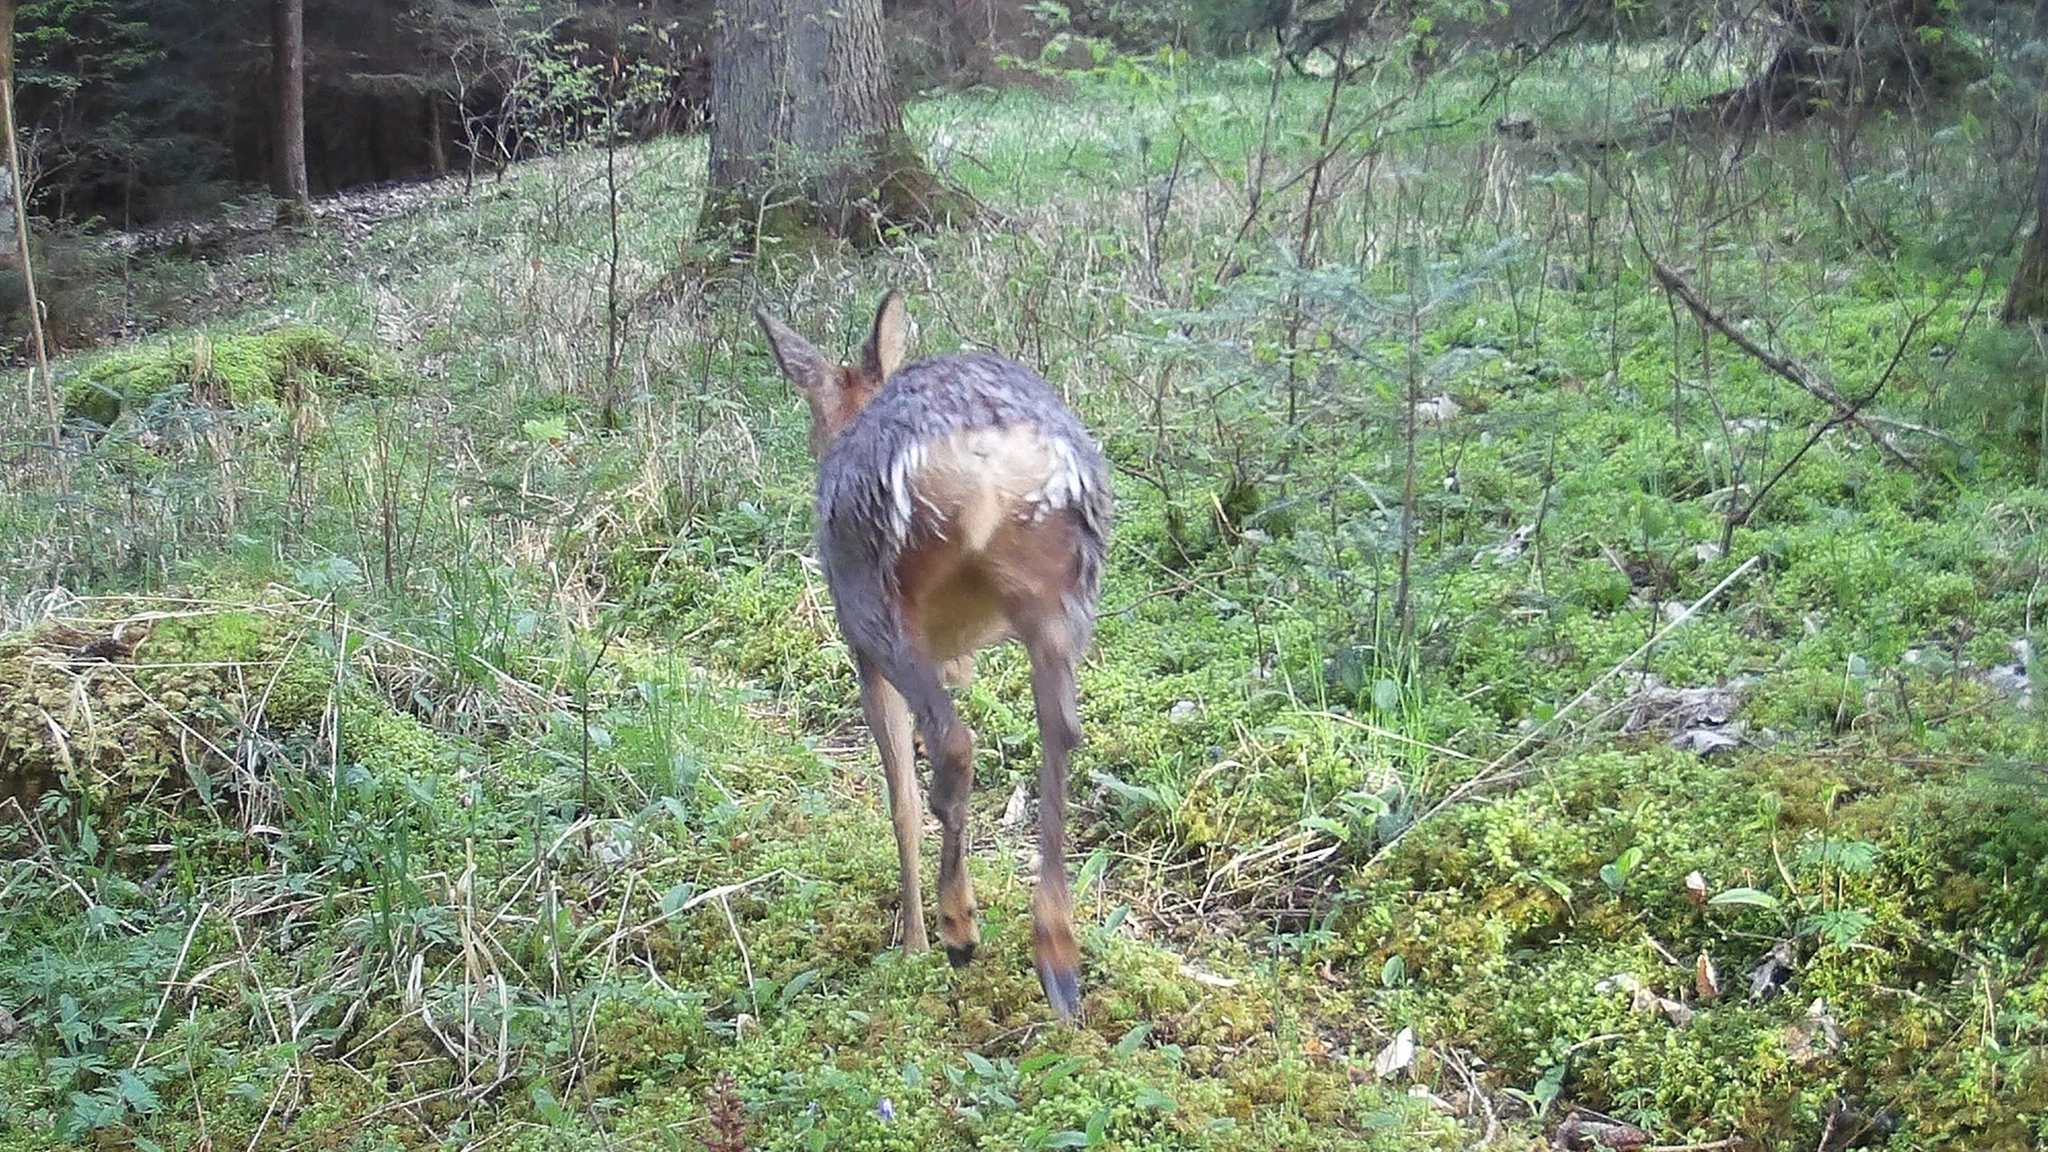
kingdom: Animalia
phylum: Chordata
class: Mammalia
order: Artiodactyla
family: Cervidae
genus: Capreolus
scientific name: Capreolus capreolus
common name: Western roe deer
